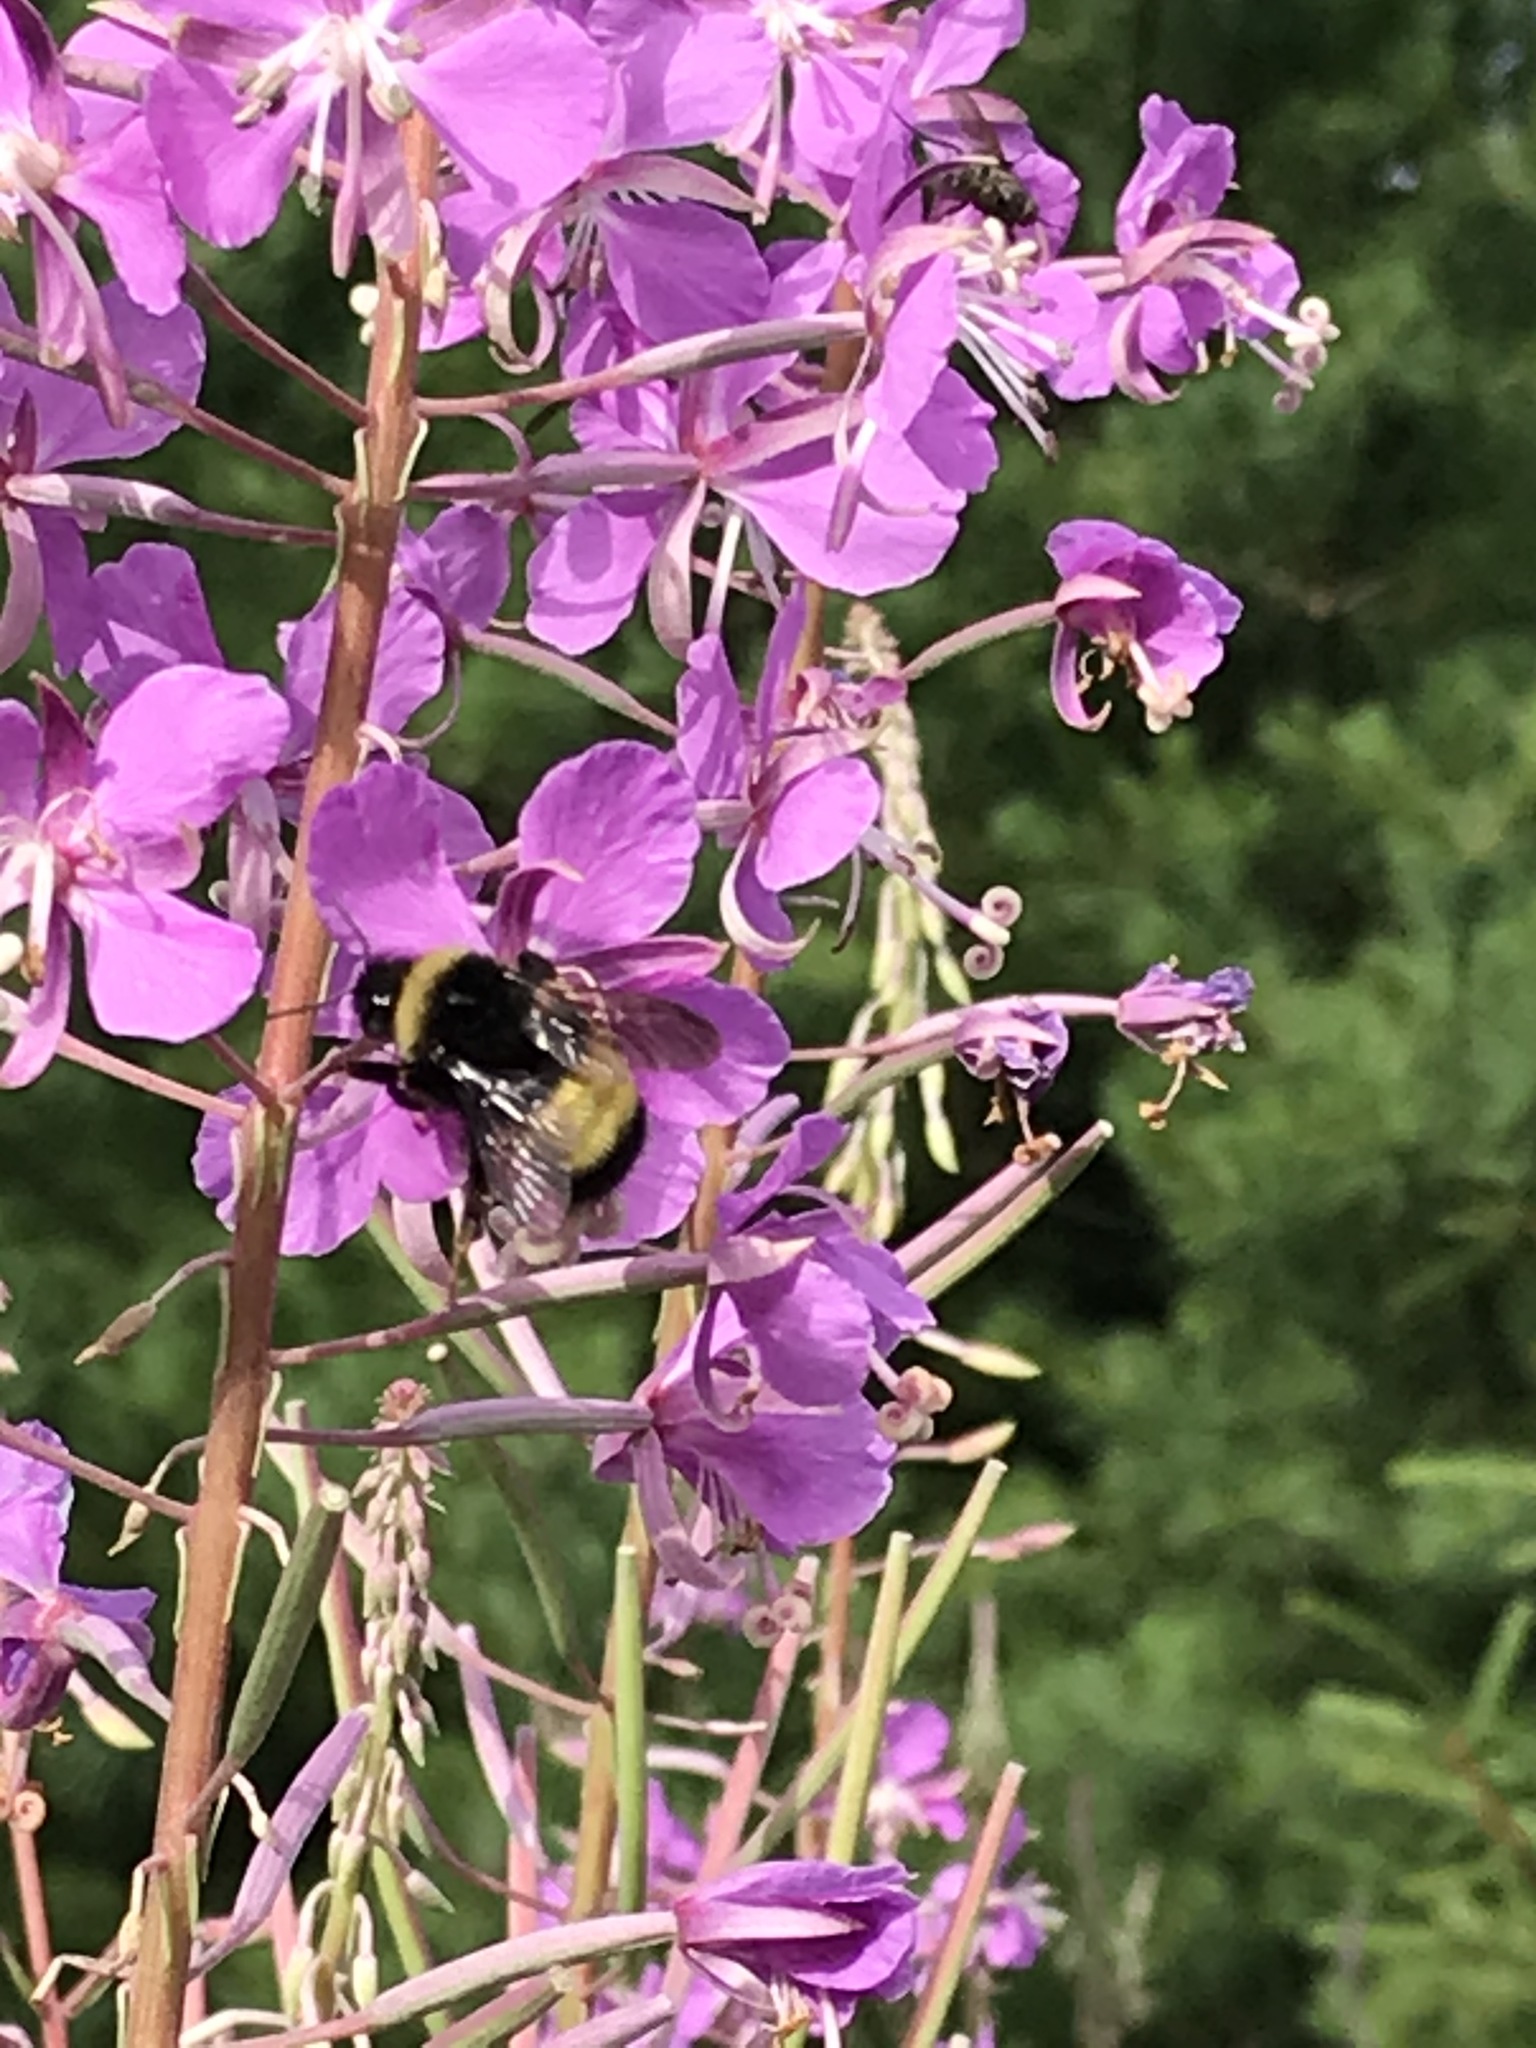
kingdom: Animalia
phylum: Arthropoda
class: Insecta
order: Hymenoptera
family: Apidae
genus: Bombus
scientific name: Bombus terricola
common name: Yellow-banded bumble bee
